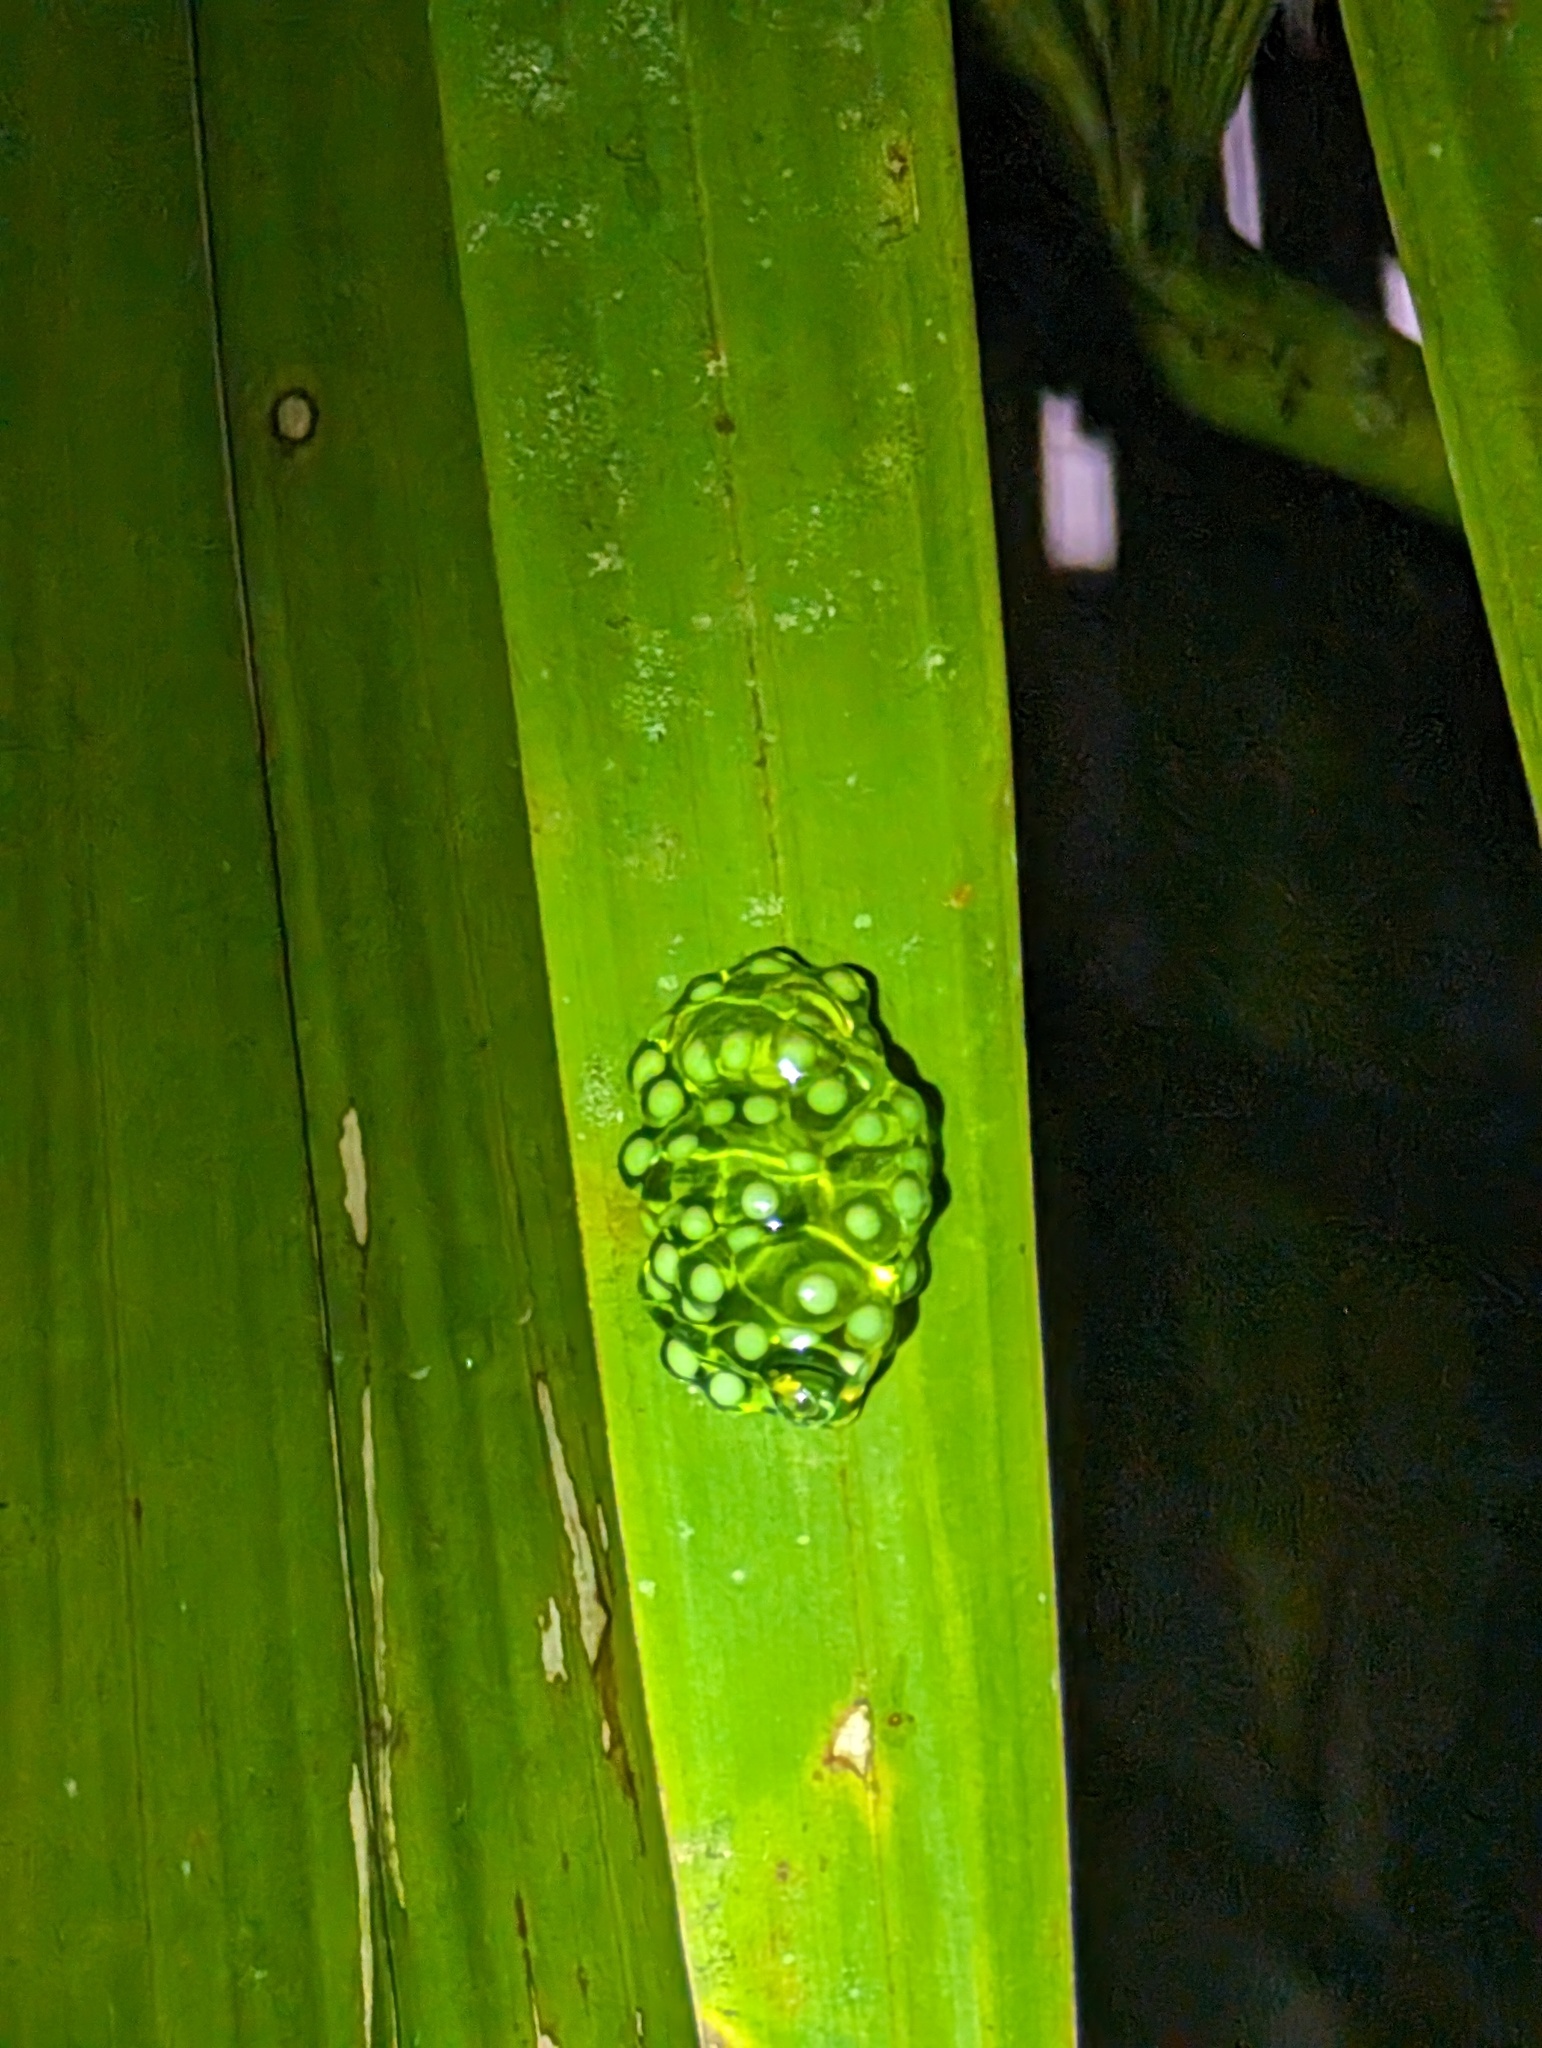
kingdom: Animalia
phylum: Chordata
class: Amphibia
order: Anura
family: Phyllomedusidae
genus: Agalychnis
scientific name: Agalychnis callidryas
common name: Red-eyed treefrog
